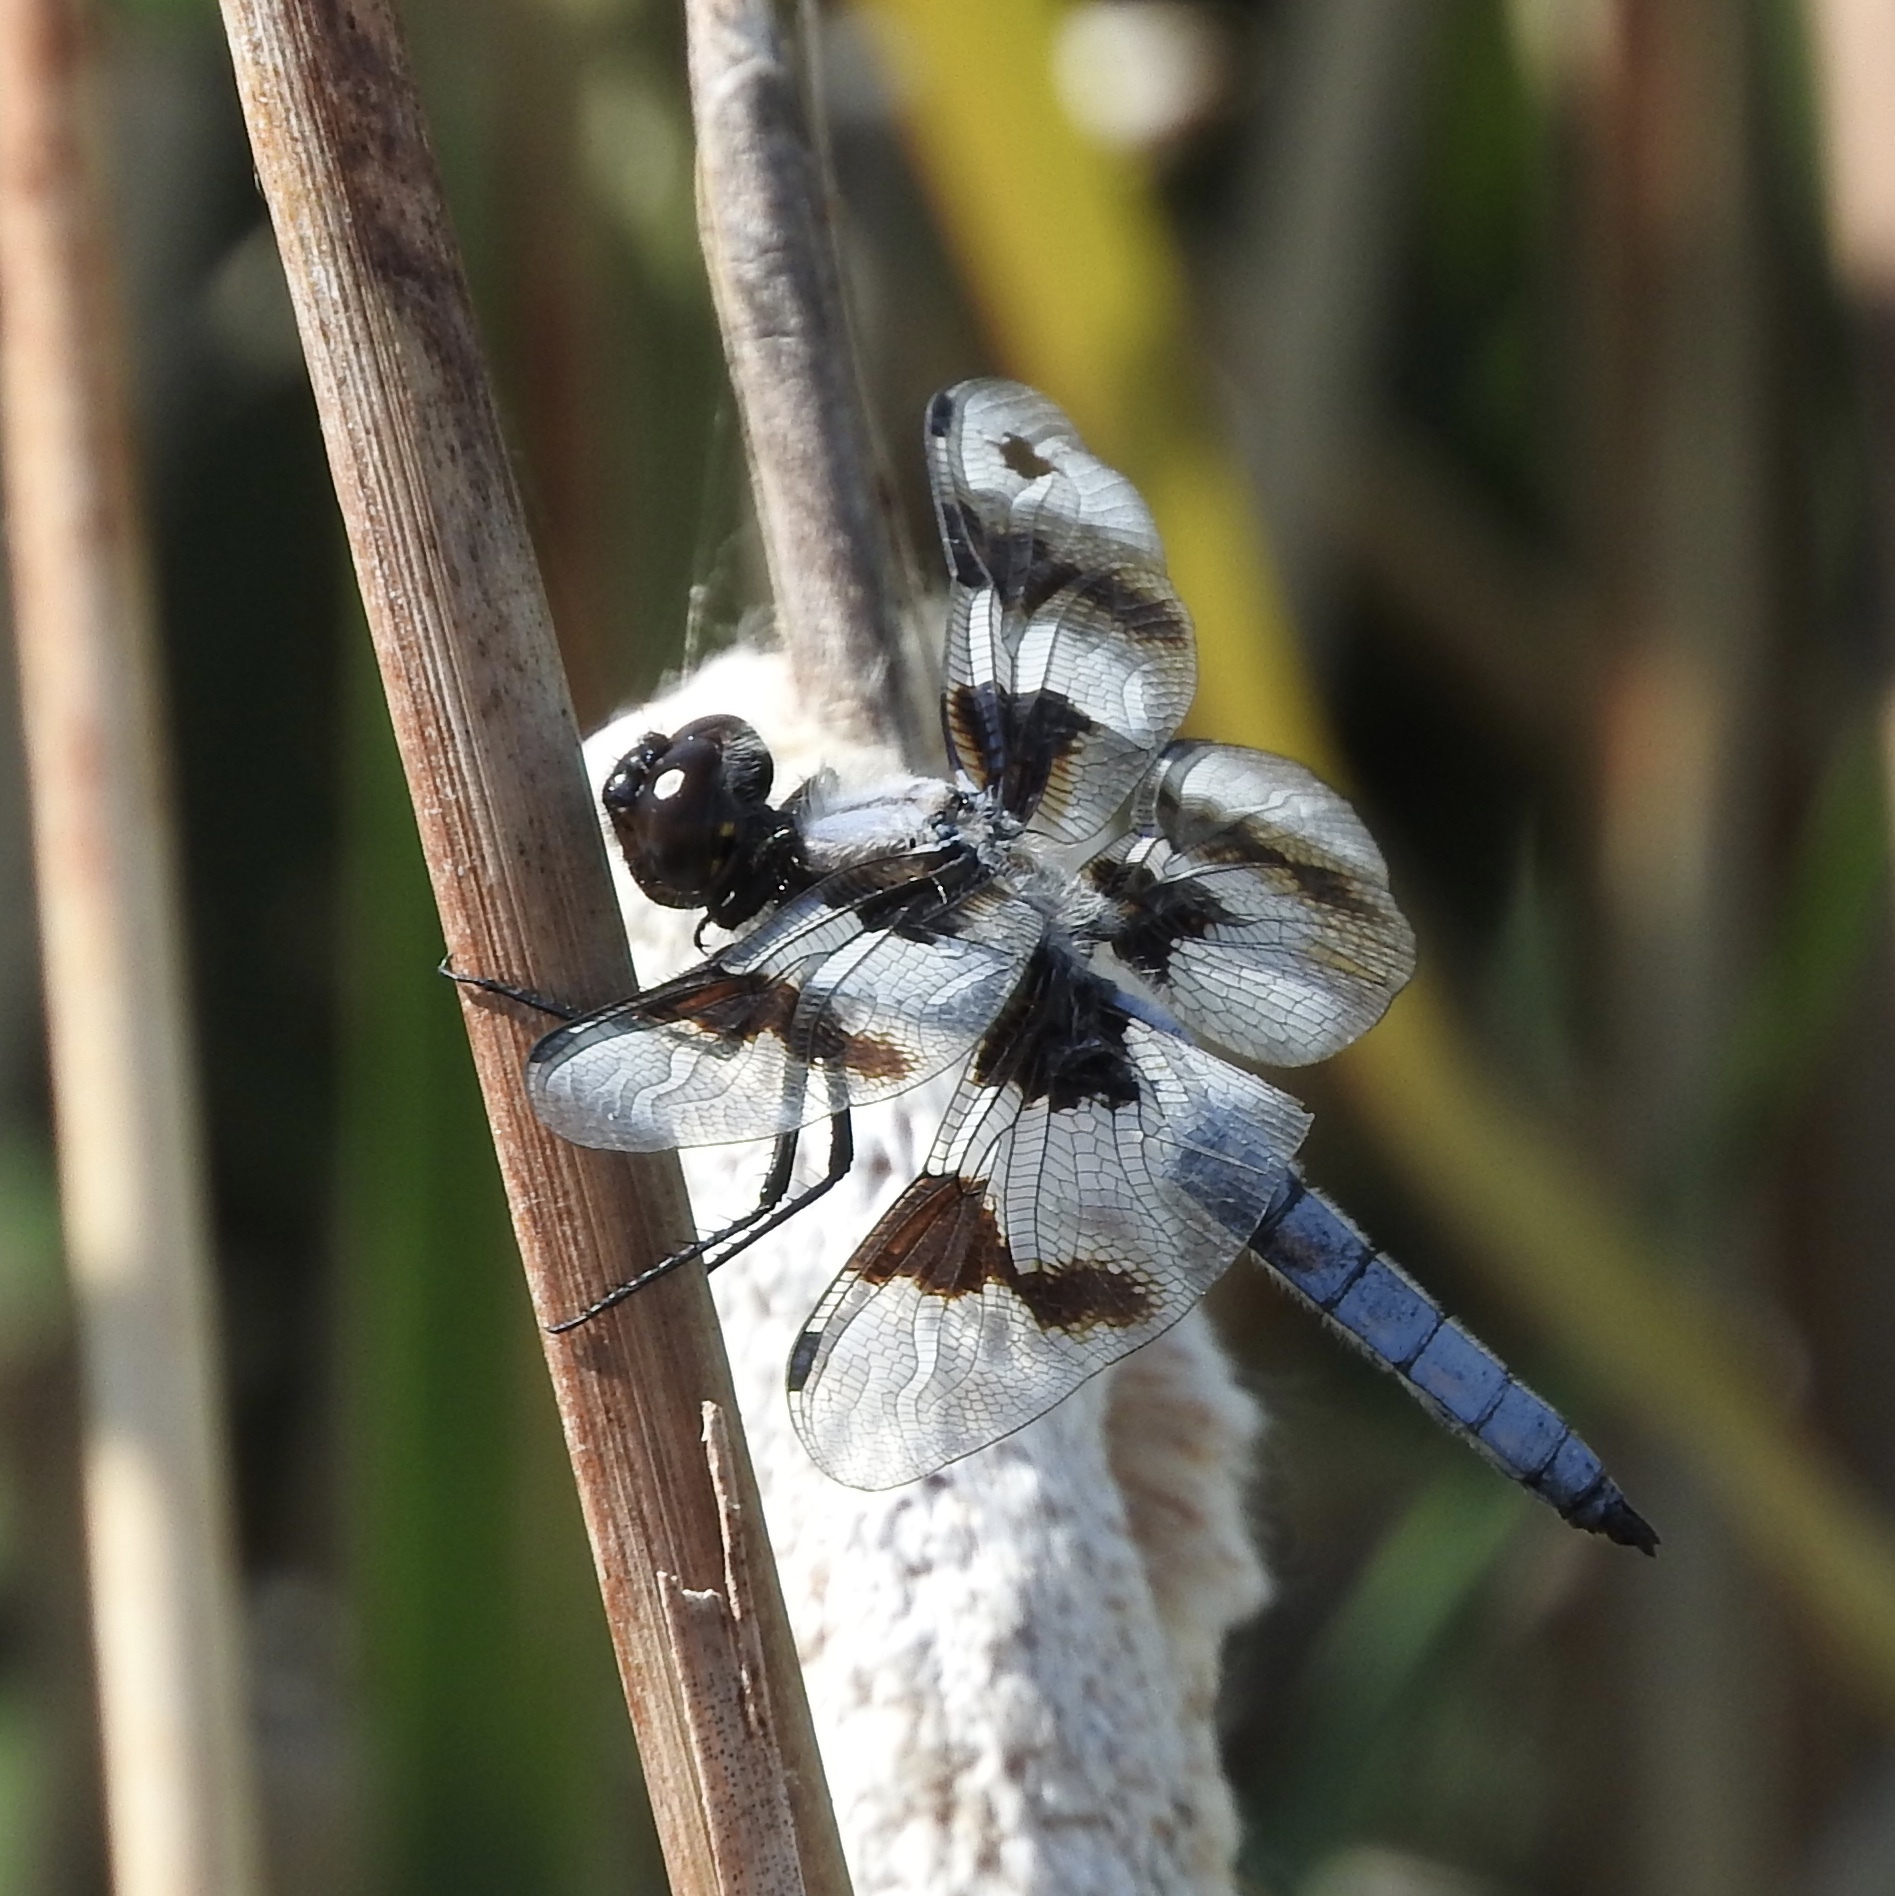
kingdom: Animalia
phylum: Arthropoda
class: Insecta
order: Odonata
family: Libellulidae
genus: Libellula
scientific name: Libellula forensis
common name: Eight-spotted skimmer
